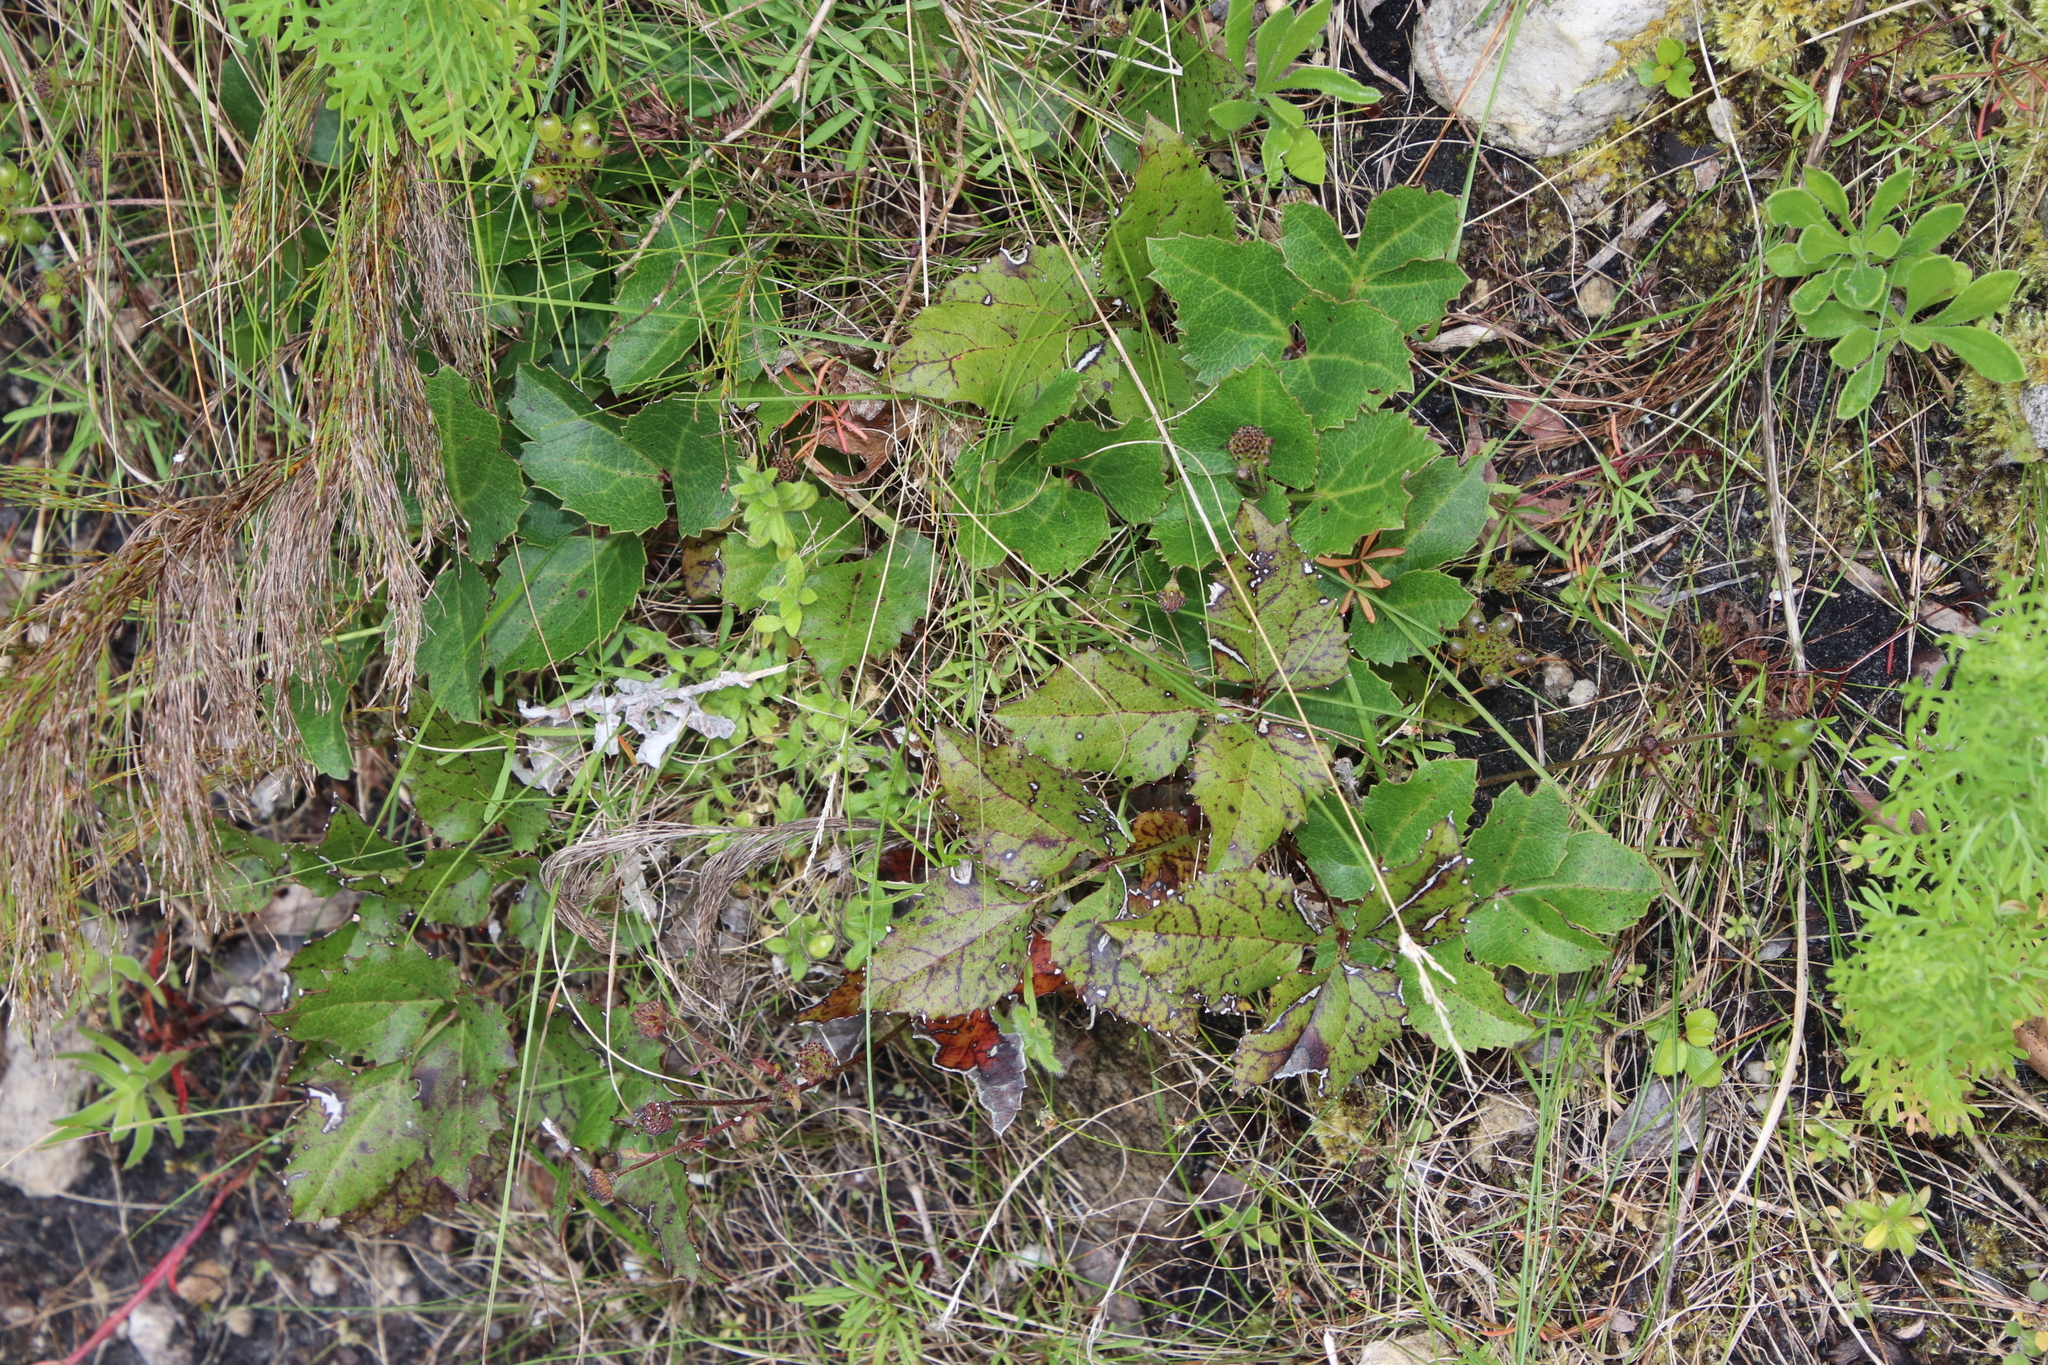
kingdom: Plantae
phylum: Tracheophyta
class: Magnoliopsida
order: Ranunculales
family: Ranunculaceae
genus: Knowltonia
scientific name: Knowltonia vesicatoria
